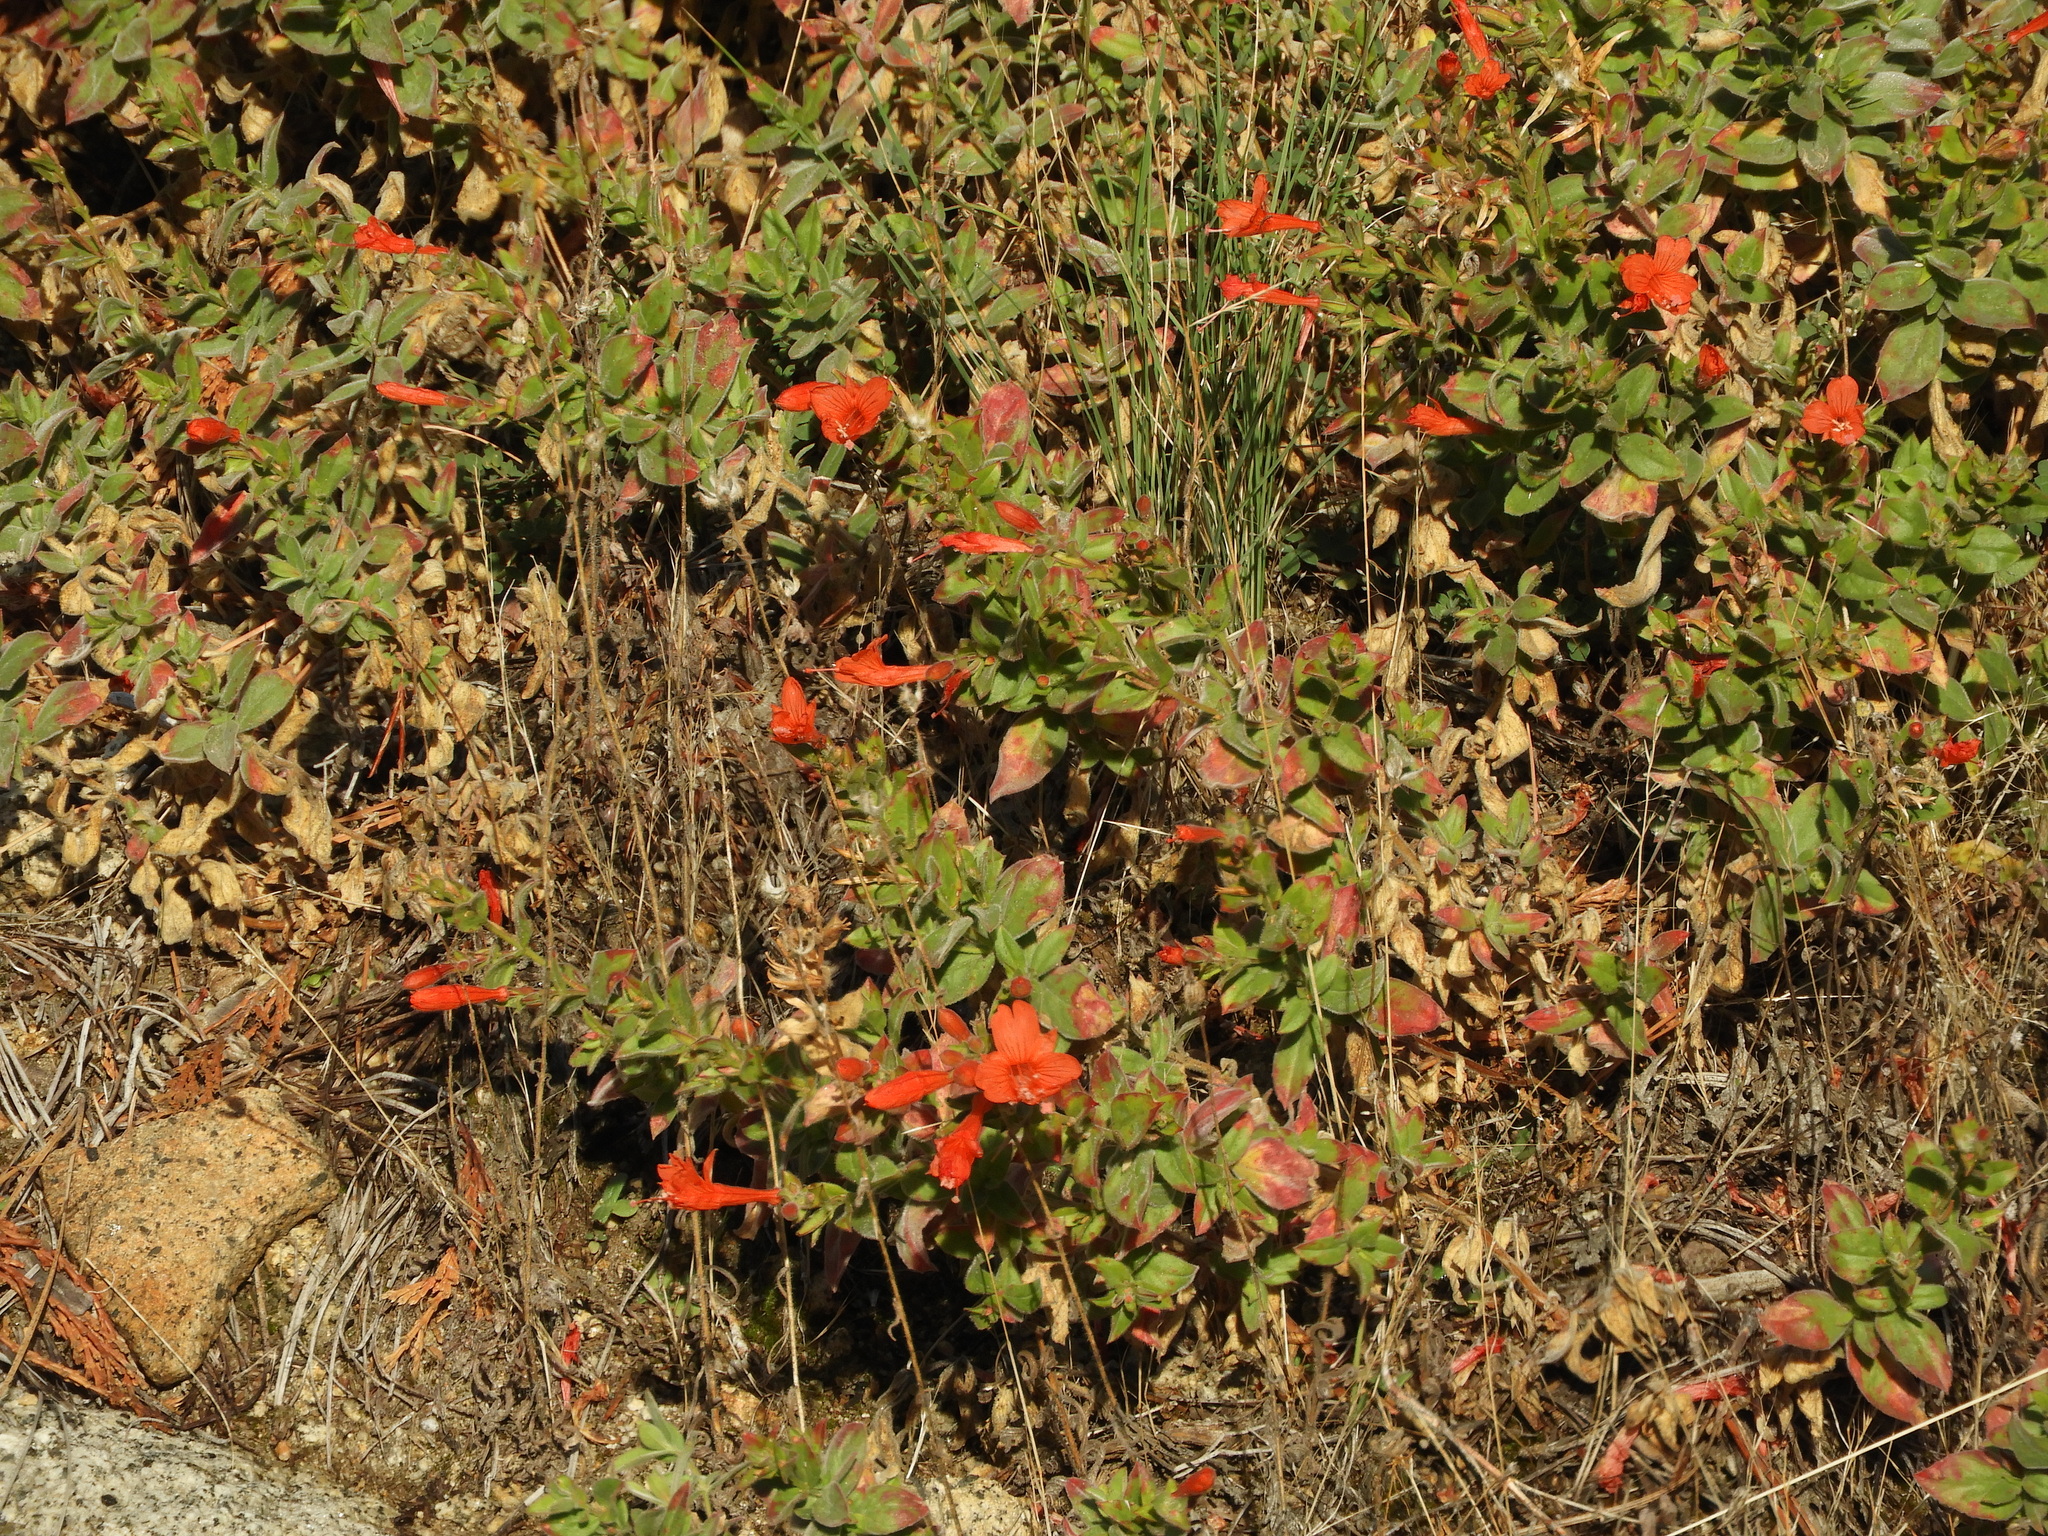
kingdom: Plantae
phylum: Tracheophyta
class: Magnoliopsida
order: Myrtales
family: Onagraceae
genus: Epilobium
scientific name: Epilobium canum
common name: California-fuchsia
